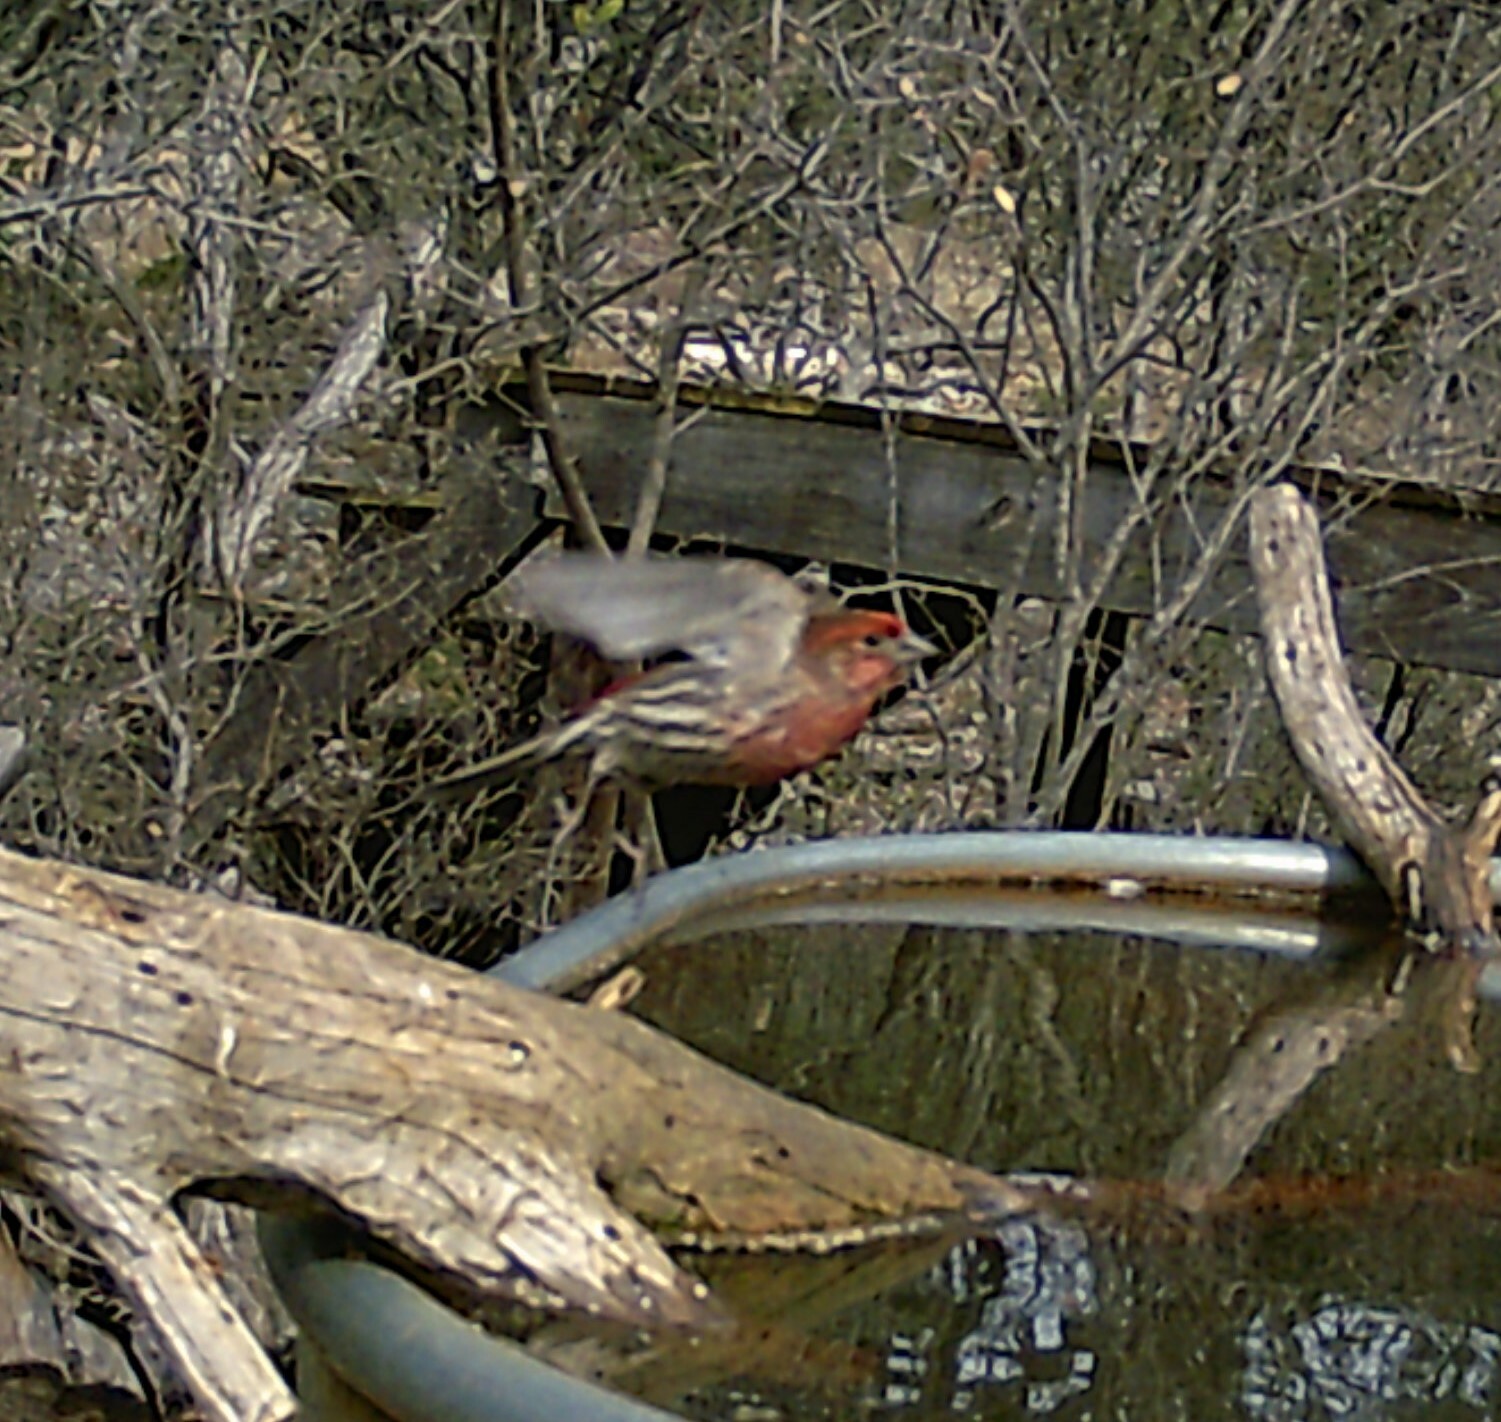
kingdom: Animalia
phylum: Chordata
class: Aves
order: Passeriformes
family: Fringillidae
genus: Haemorhous
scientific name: Haemorhous mexicanus
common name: House finch
